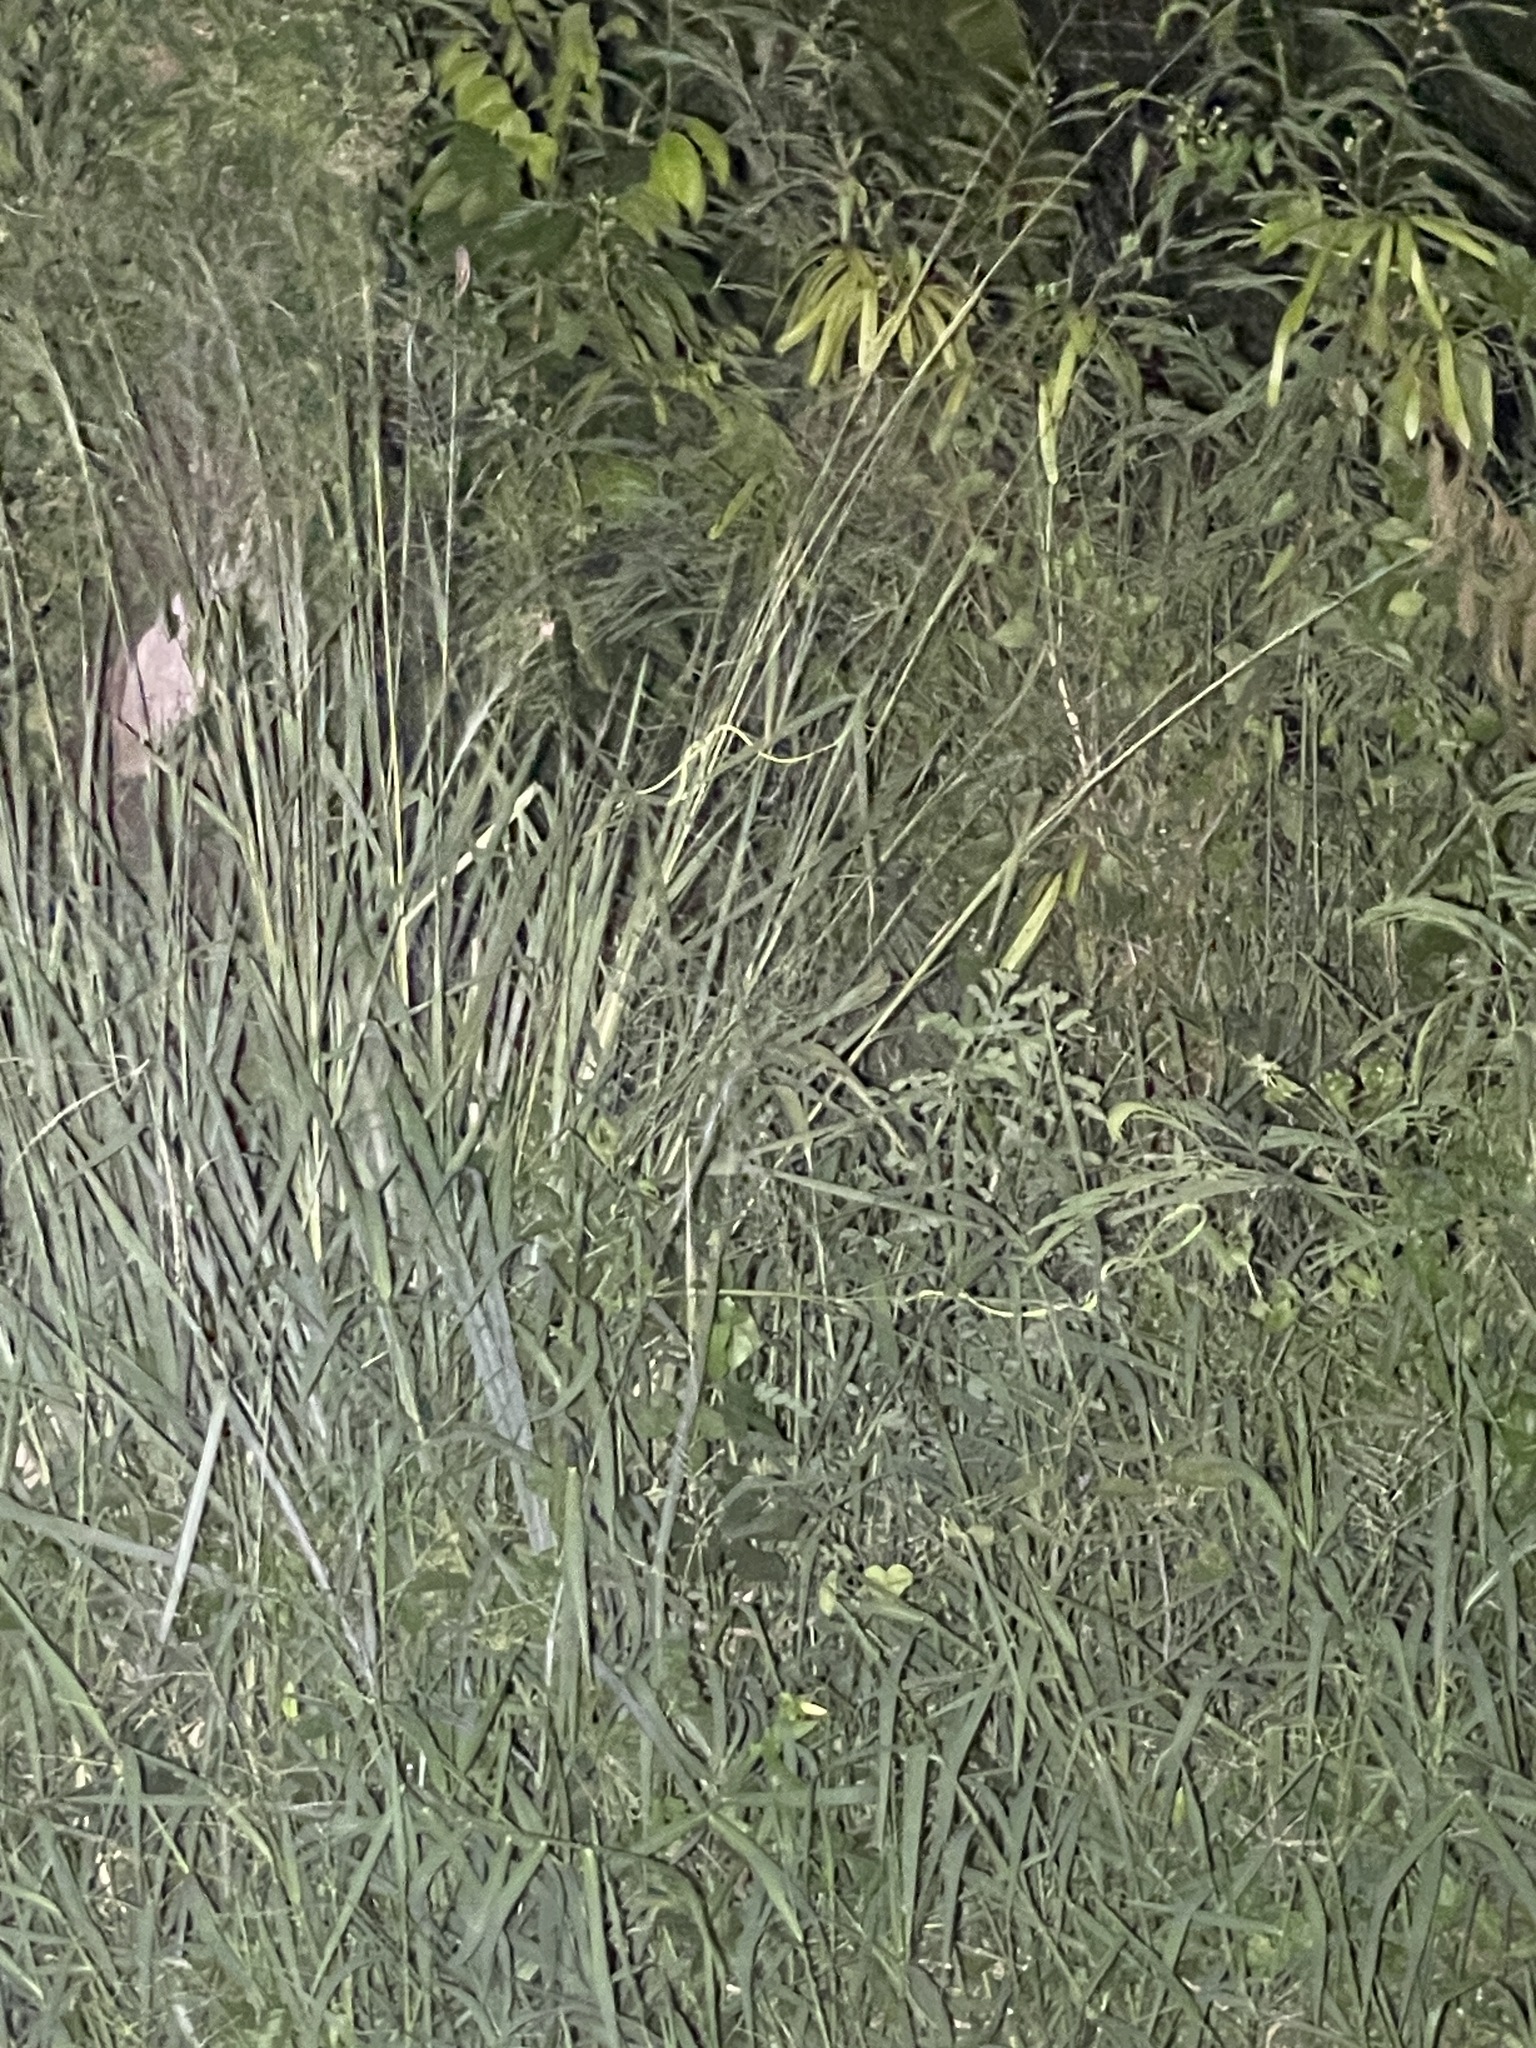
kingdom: Animalia
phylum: Chordata
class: Squamata
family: Colubridae
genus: Ahaetulla
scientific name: Ahaetulla
